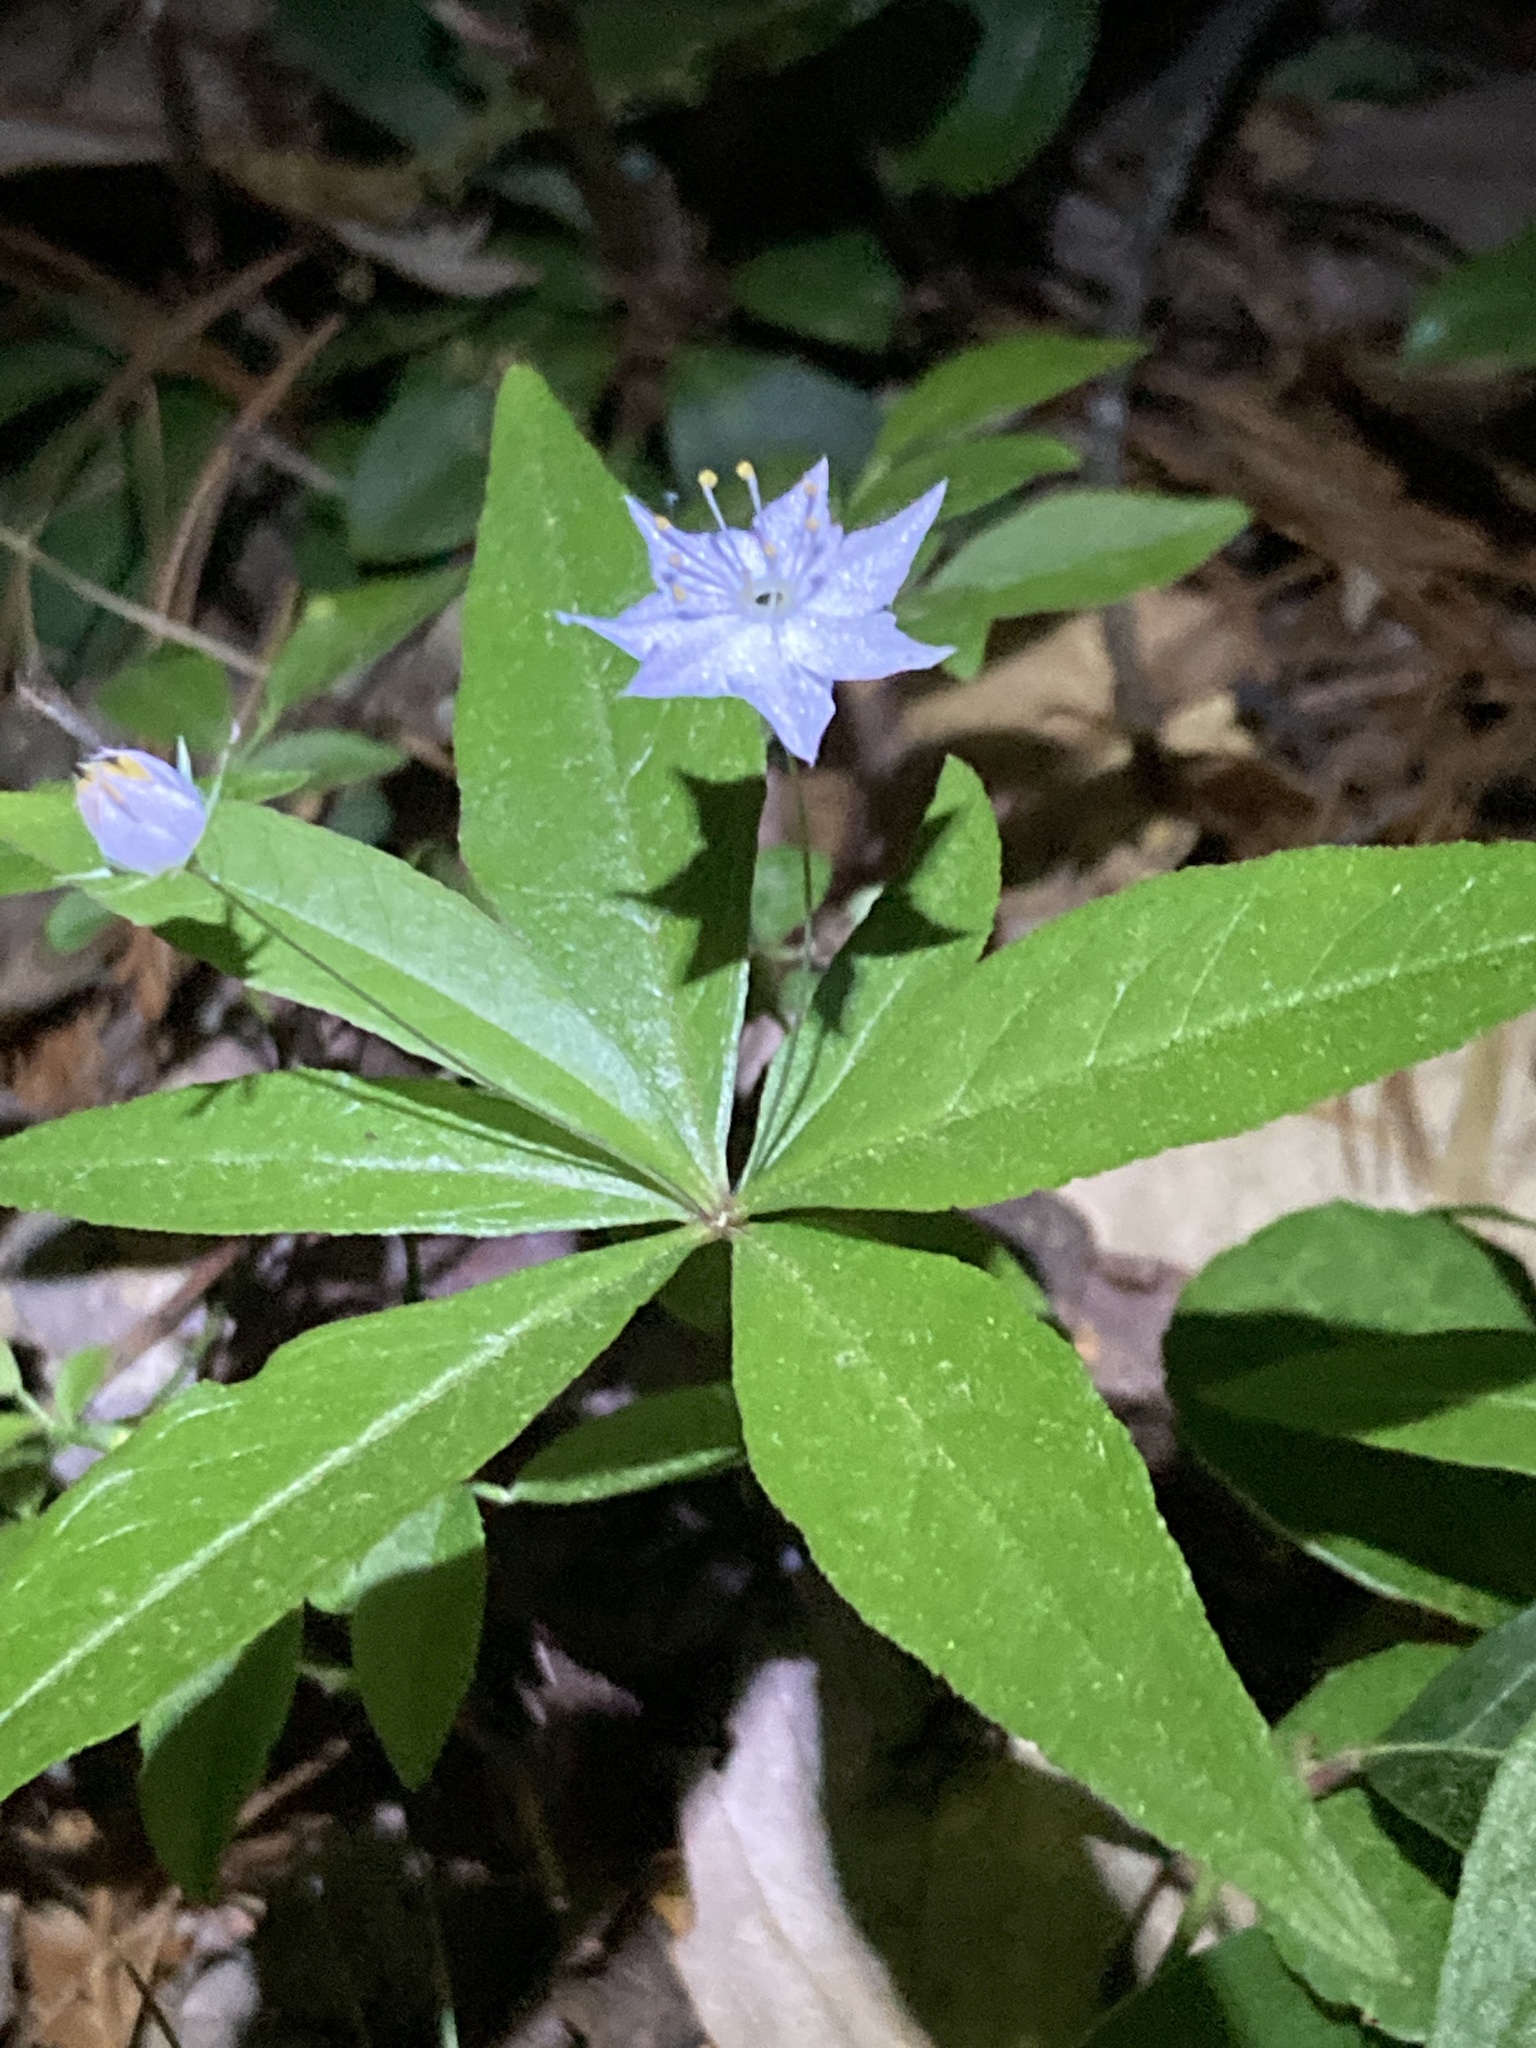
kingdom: Plantae
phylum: Tracheophyta
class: Magnoliopsida
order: Ericales
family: Primulaceae
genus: Lysimachia
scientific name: Lysimachia borealis
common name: American starflower
